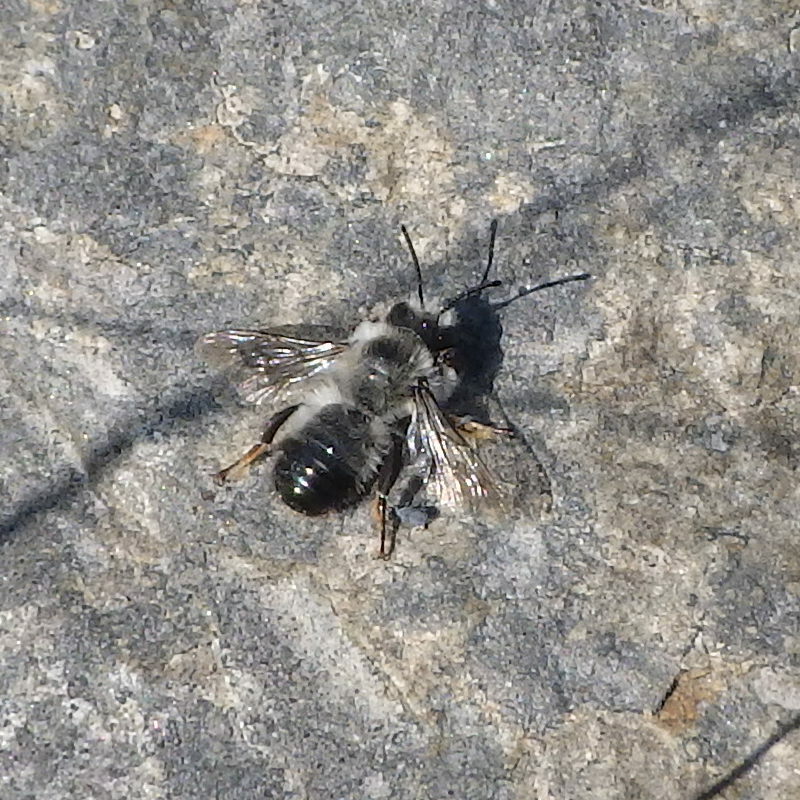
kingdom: Animalia
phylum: Arthropoda
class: Insecta
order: Hymenoptera
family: Megachilidae
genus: Megachile
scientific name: Megachile melanophaea
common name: Black-and-gray leafcutter bee
